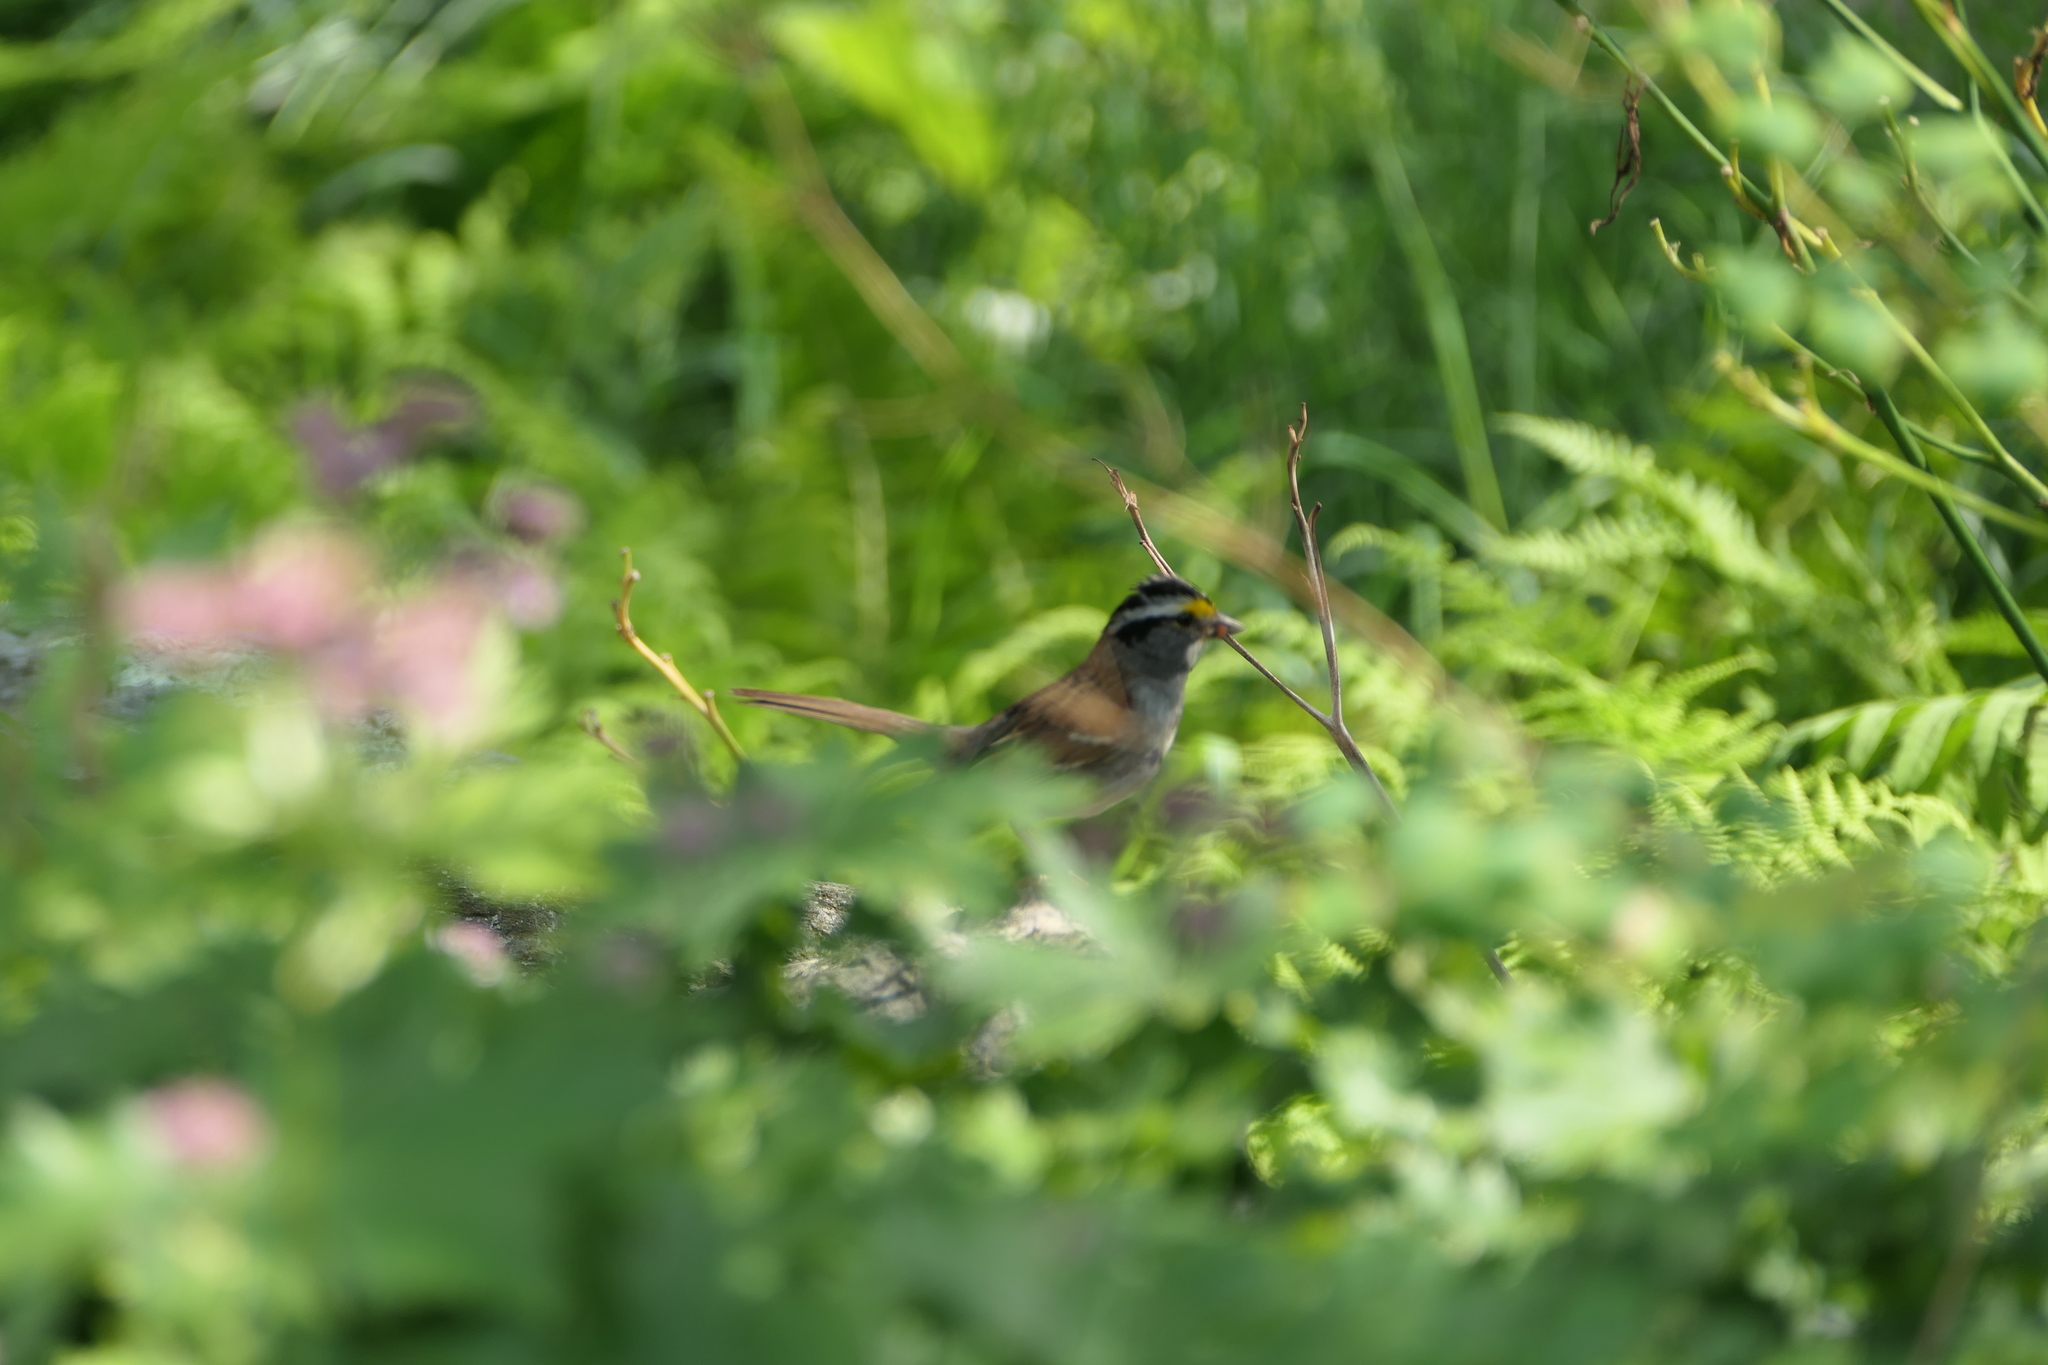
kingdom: Animalia
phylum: Chordata
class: Aves
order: Passeriformes
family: Passerellidae
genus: Zonotrichia
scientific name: Zonotrichia albicollis
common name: White-throated sparrow
